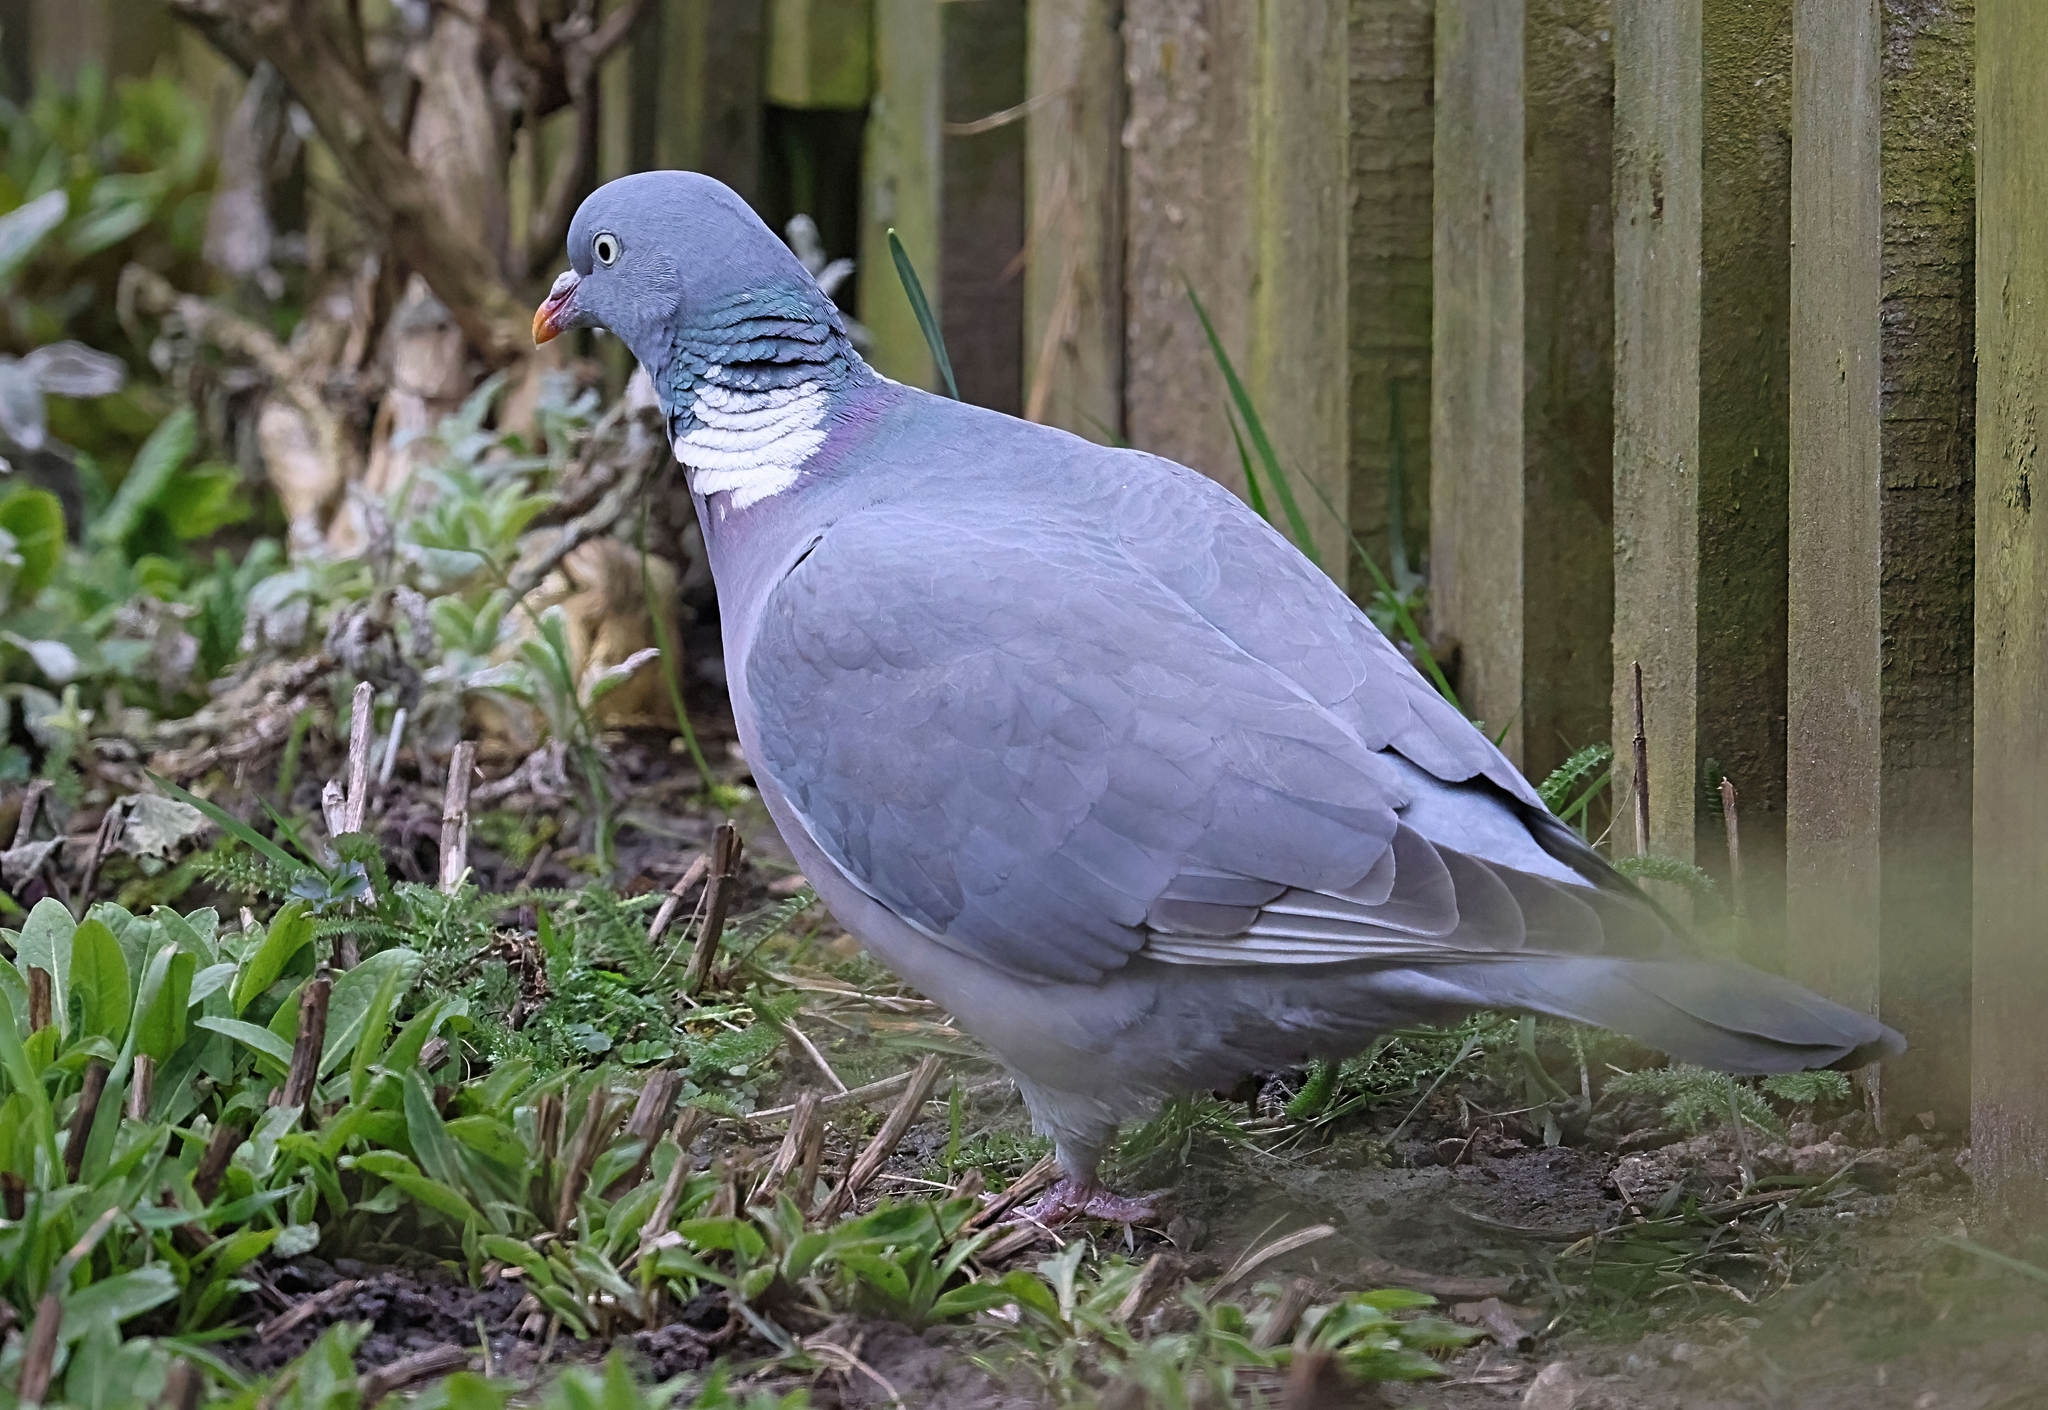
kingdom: Animalia
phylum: Chordata
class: Aves
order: Columbiformes
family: Columbidae
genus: Columba
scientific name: Columba palumbus
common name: Common wood pigeon
